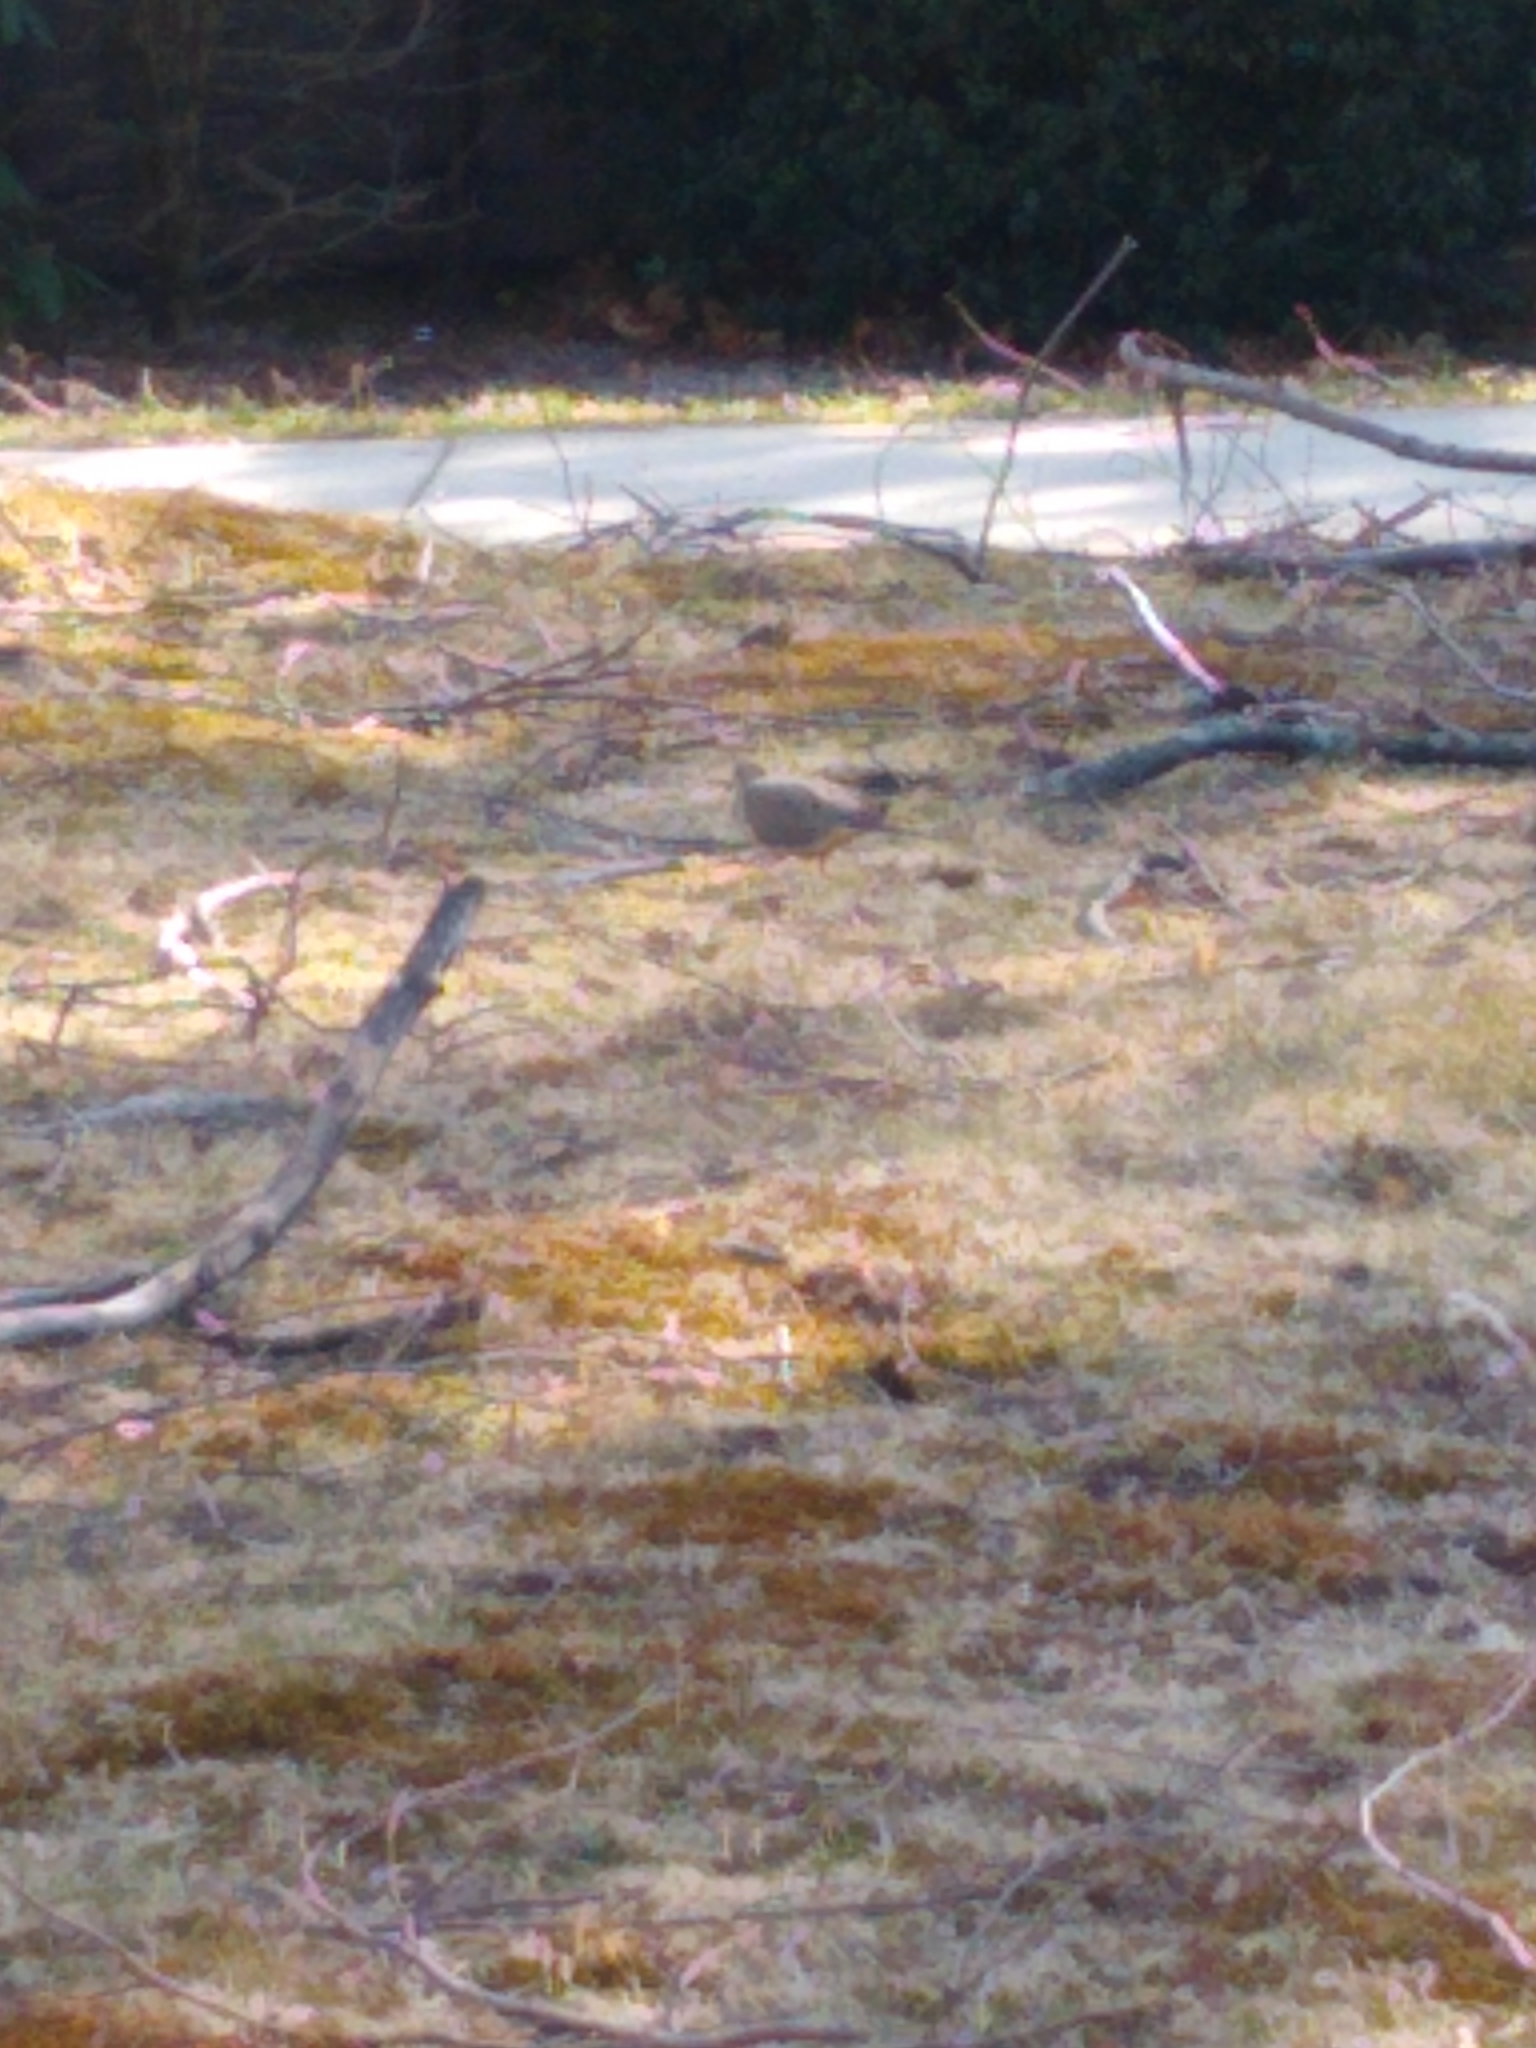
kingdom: Animalia
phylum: Chordata
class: Aves
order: Columbiformes
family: Columbidae
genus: Zenaida
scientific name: Zenaida macroura
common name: Mourning dove
